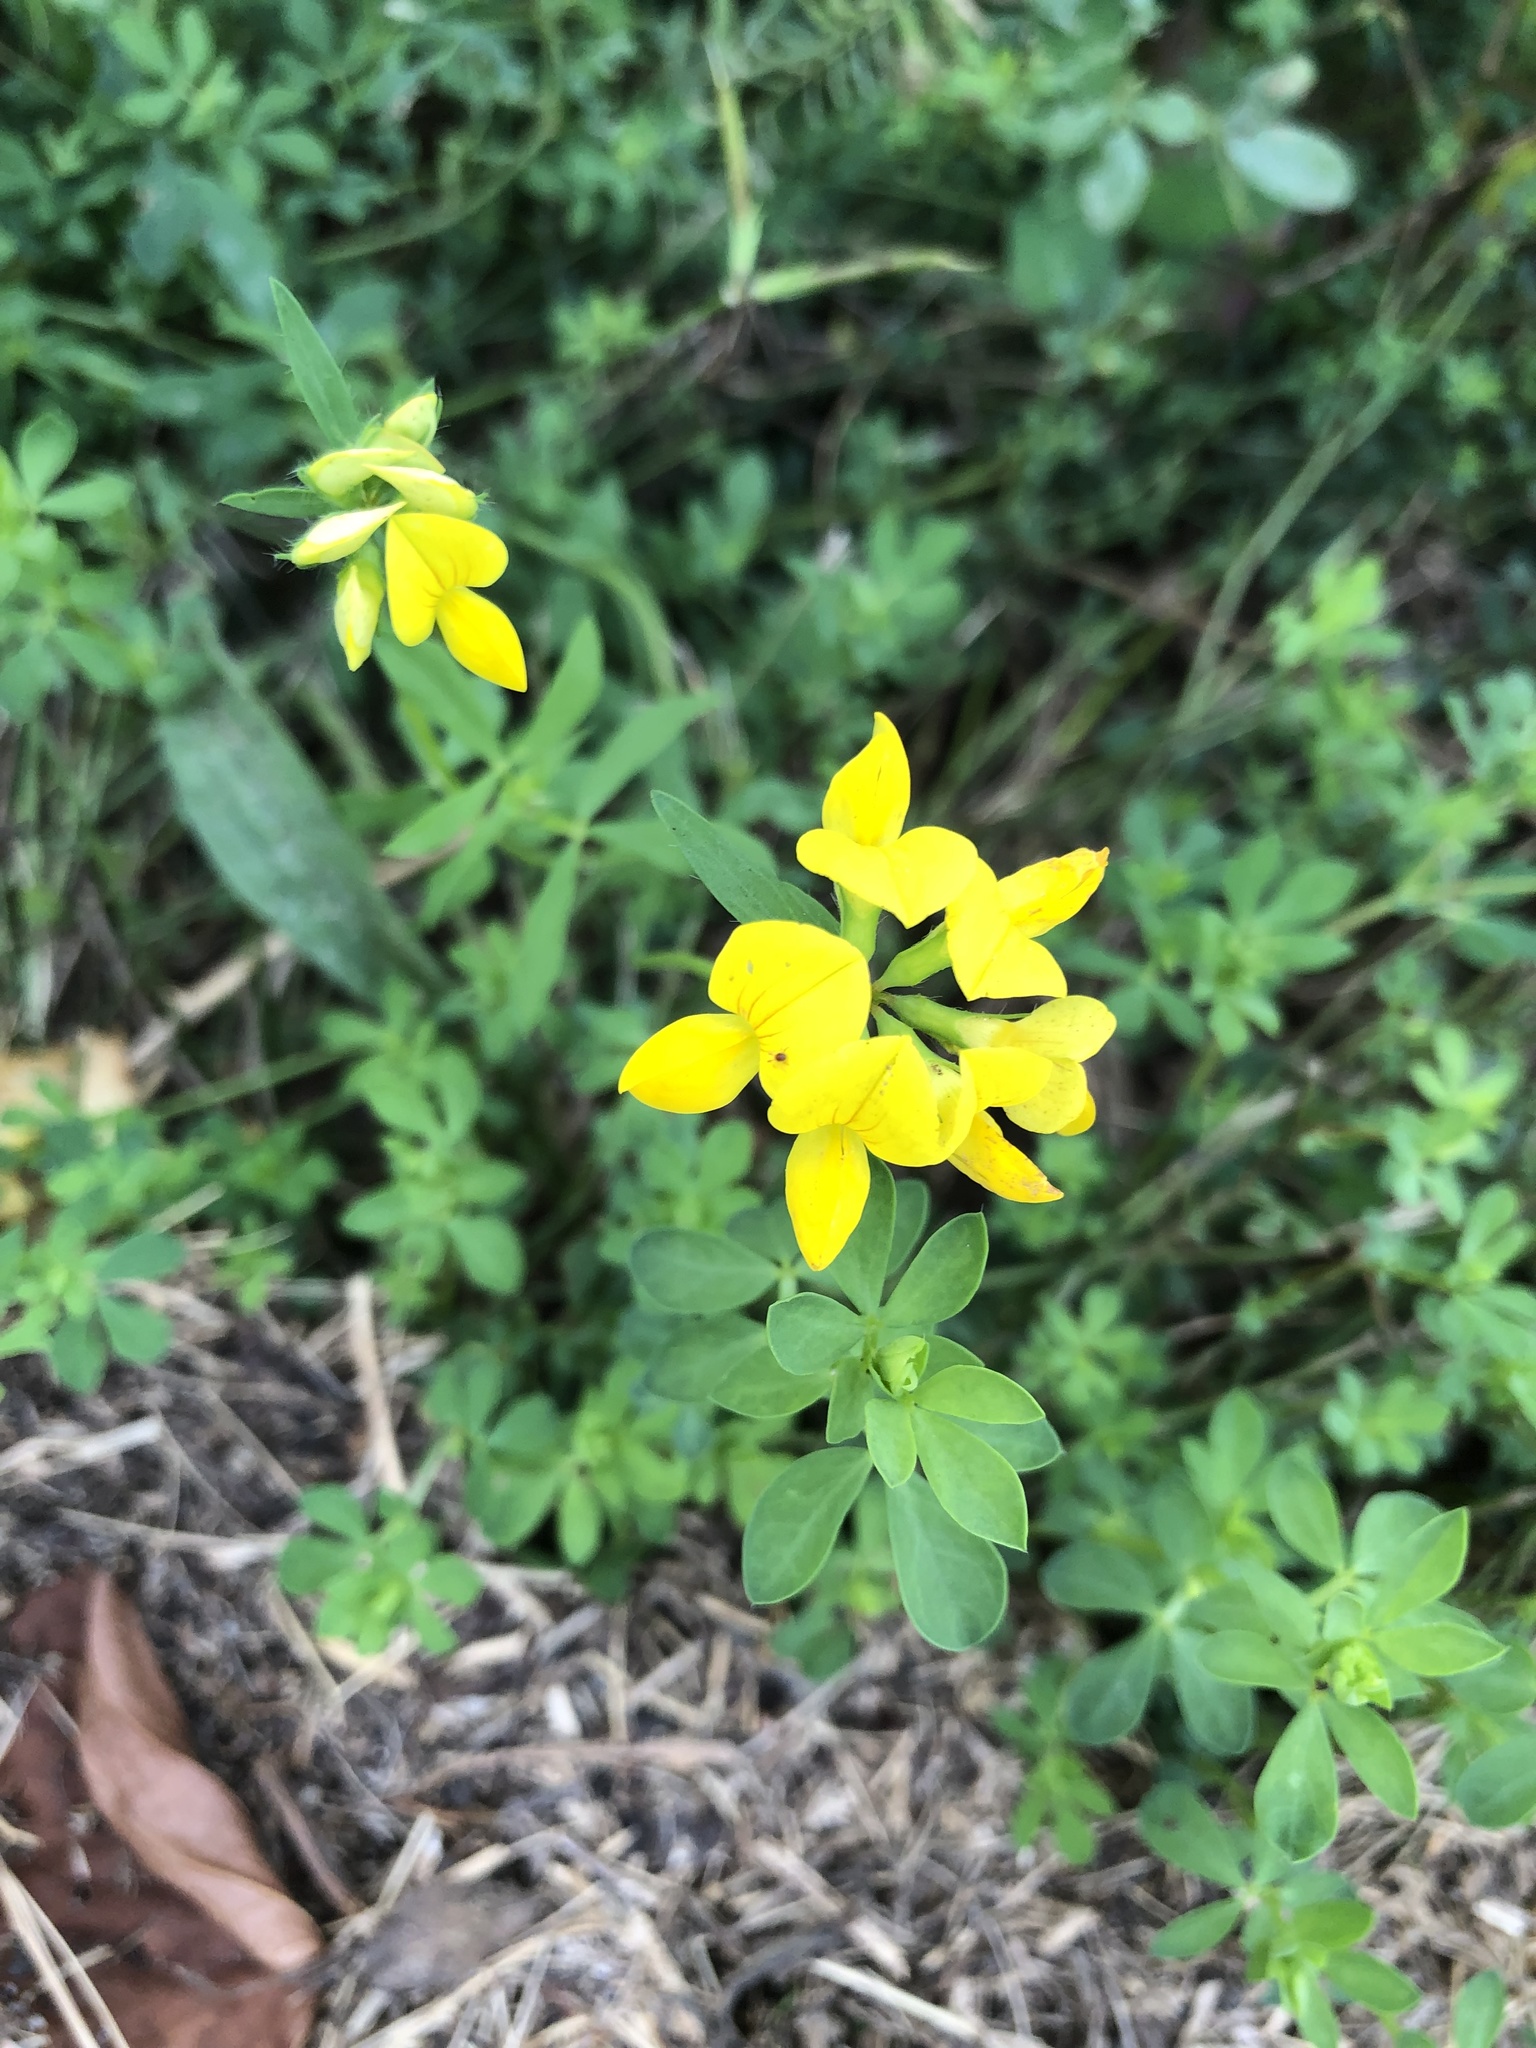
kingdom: Plantae
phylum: Tracheophyta
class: Magnoliopsida
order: Fabales
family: Fabaceae
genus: Lotus
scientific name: Lotus corniculatus
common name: Common bird's-foot-trefoil
